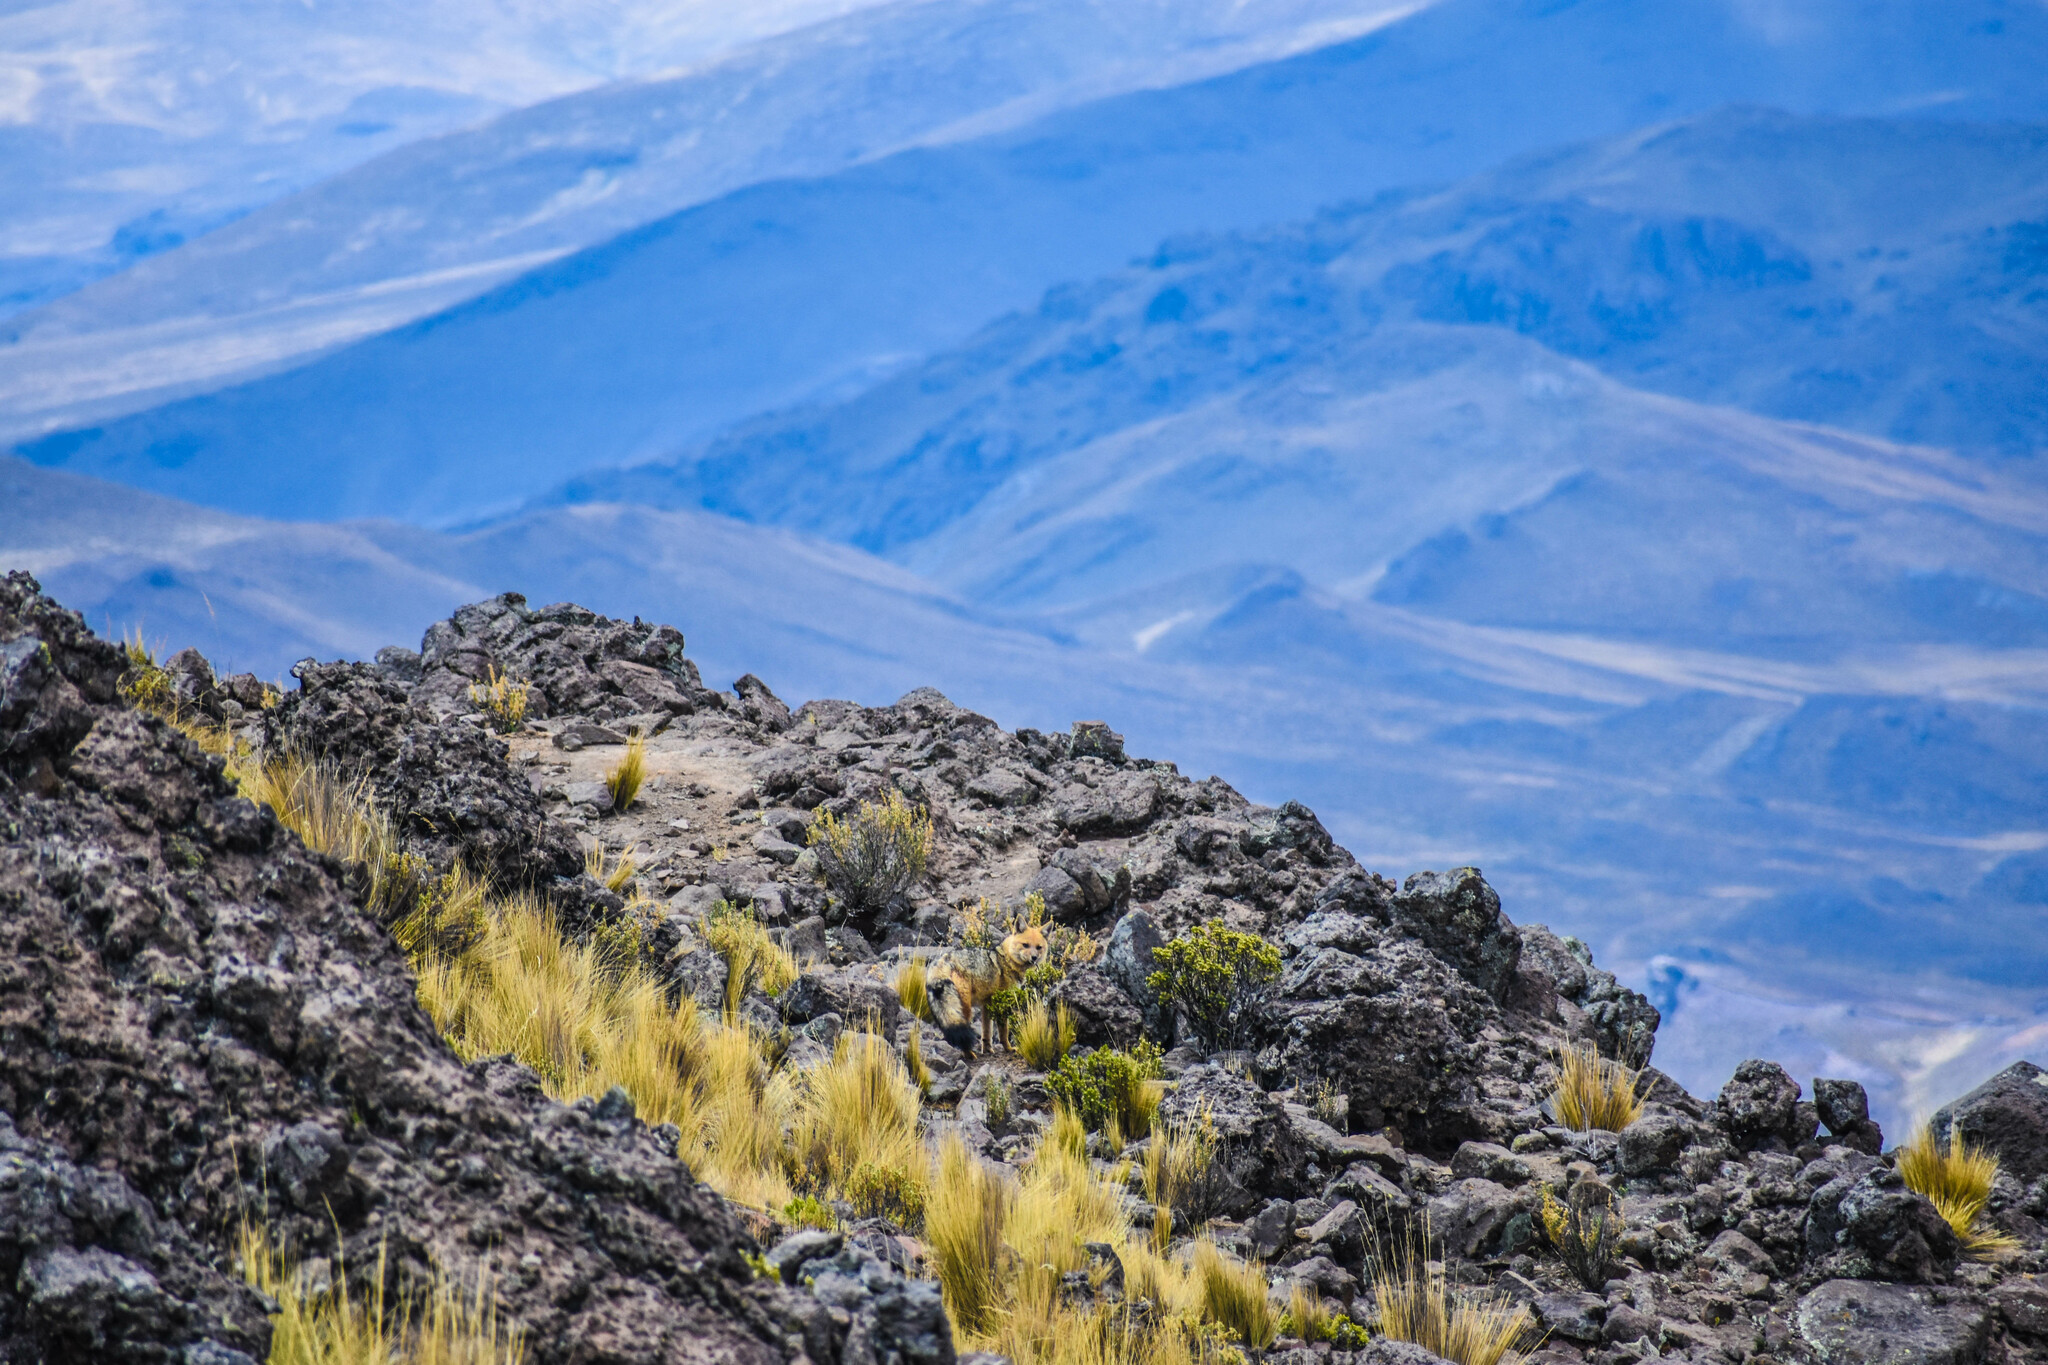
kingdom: Animalia
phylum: Chordata
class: Mammalia
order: Carnivora
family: Canidae
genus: Lycalopex
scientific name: Lycalopex culpaeus
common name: Culpeo
